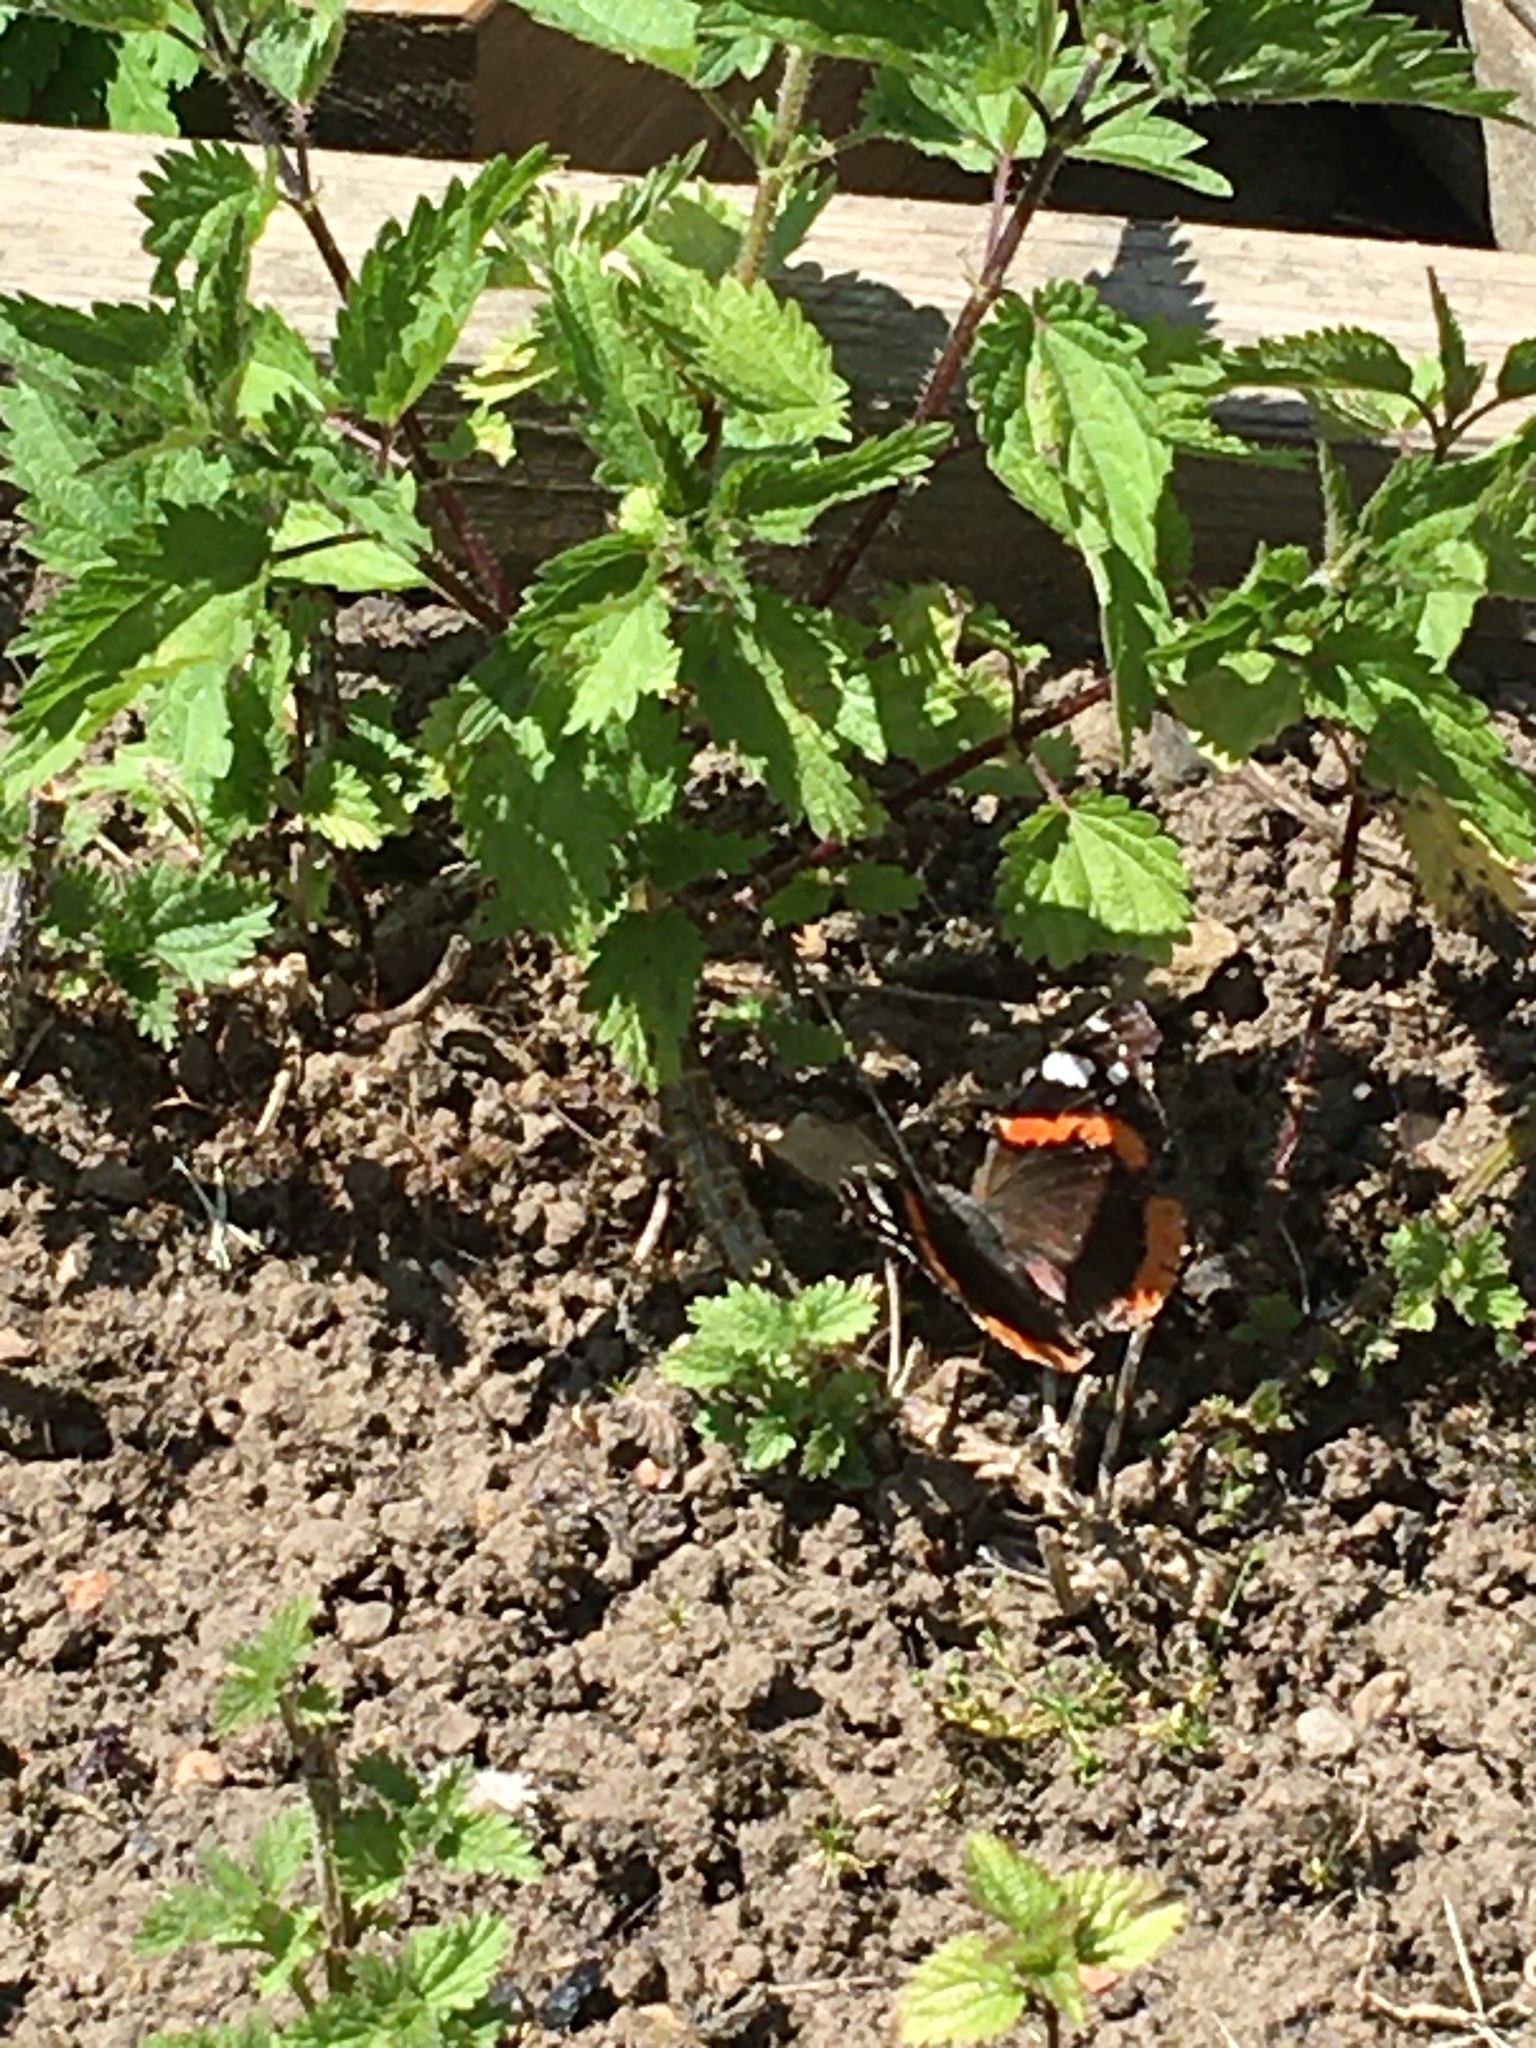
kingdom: Animalia
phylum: Arthropoda
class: Insecta
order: Lepidoptera
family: Nymphalidae
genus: Vanessa
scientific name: Vanessa atalanta
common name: Red admiral
